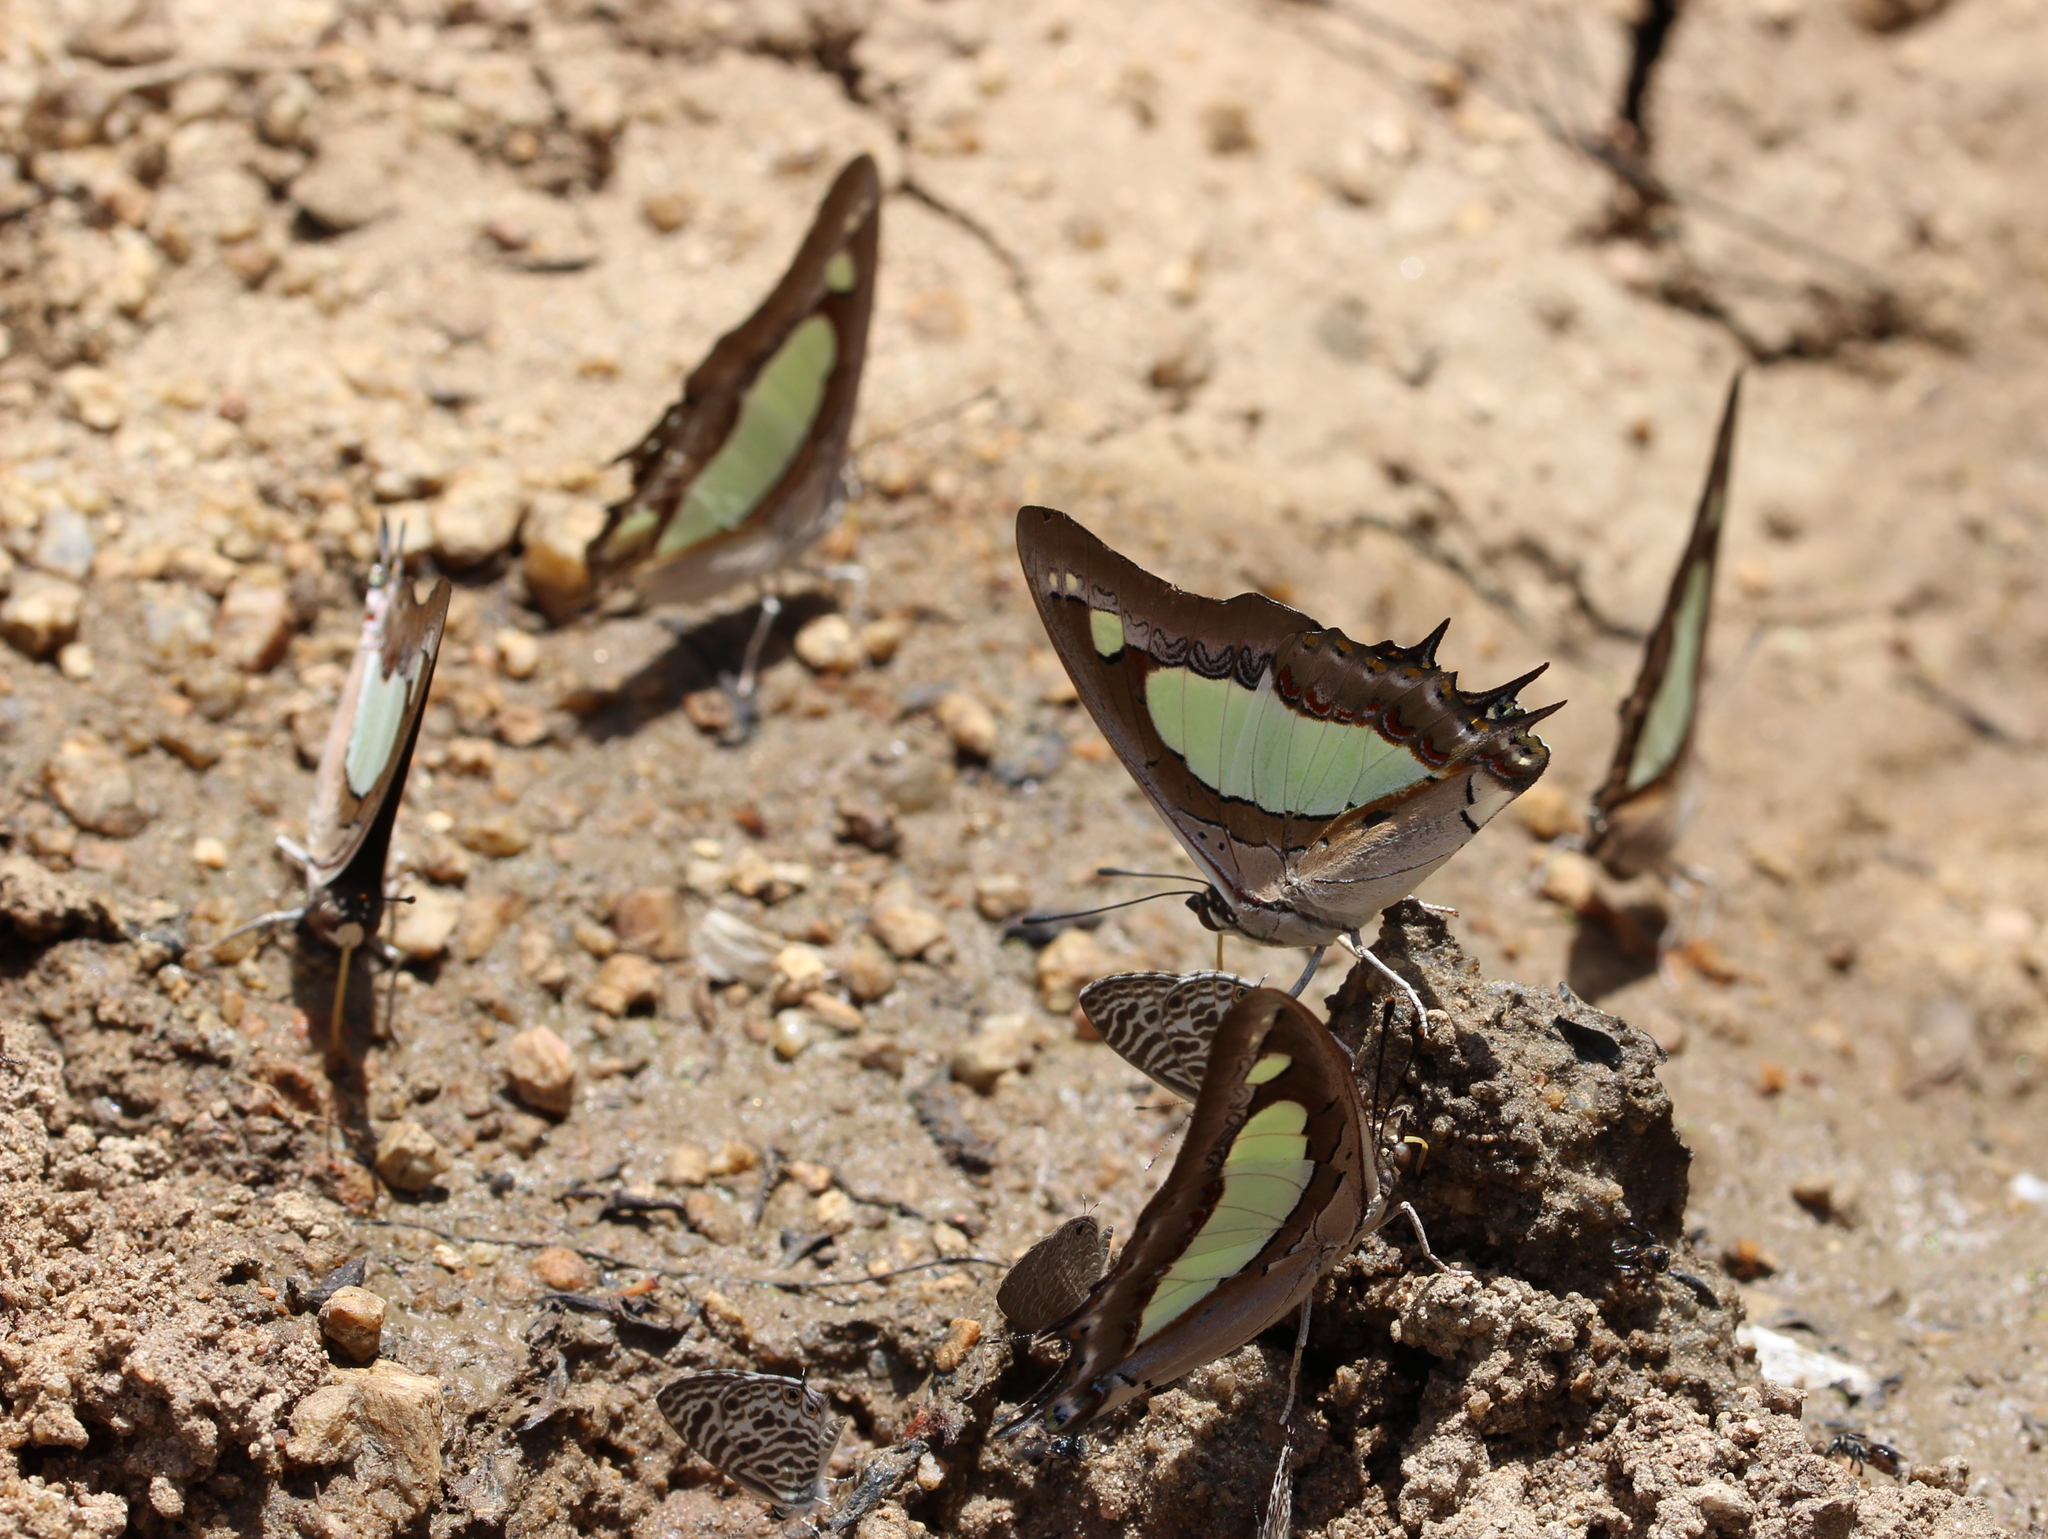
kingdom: Animalia
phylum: Arthropoda
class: Insecta
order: Lepidoptera
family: Nymphalidae
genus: Polyura
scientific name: Polyura agrarius
